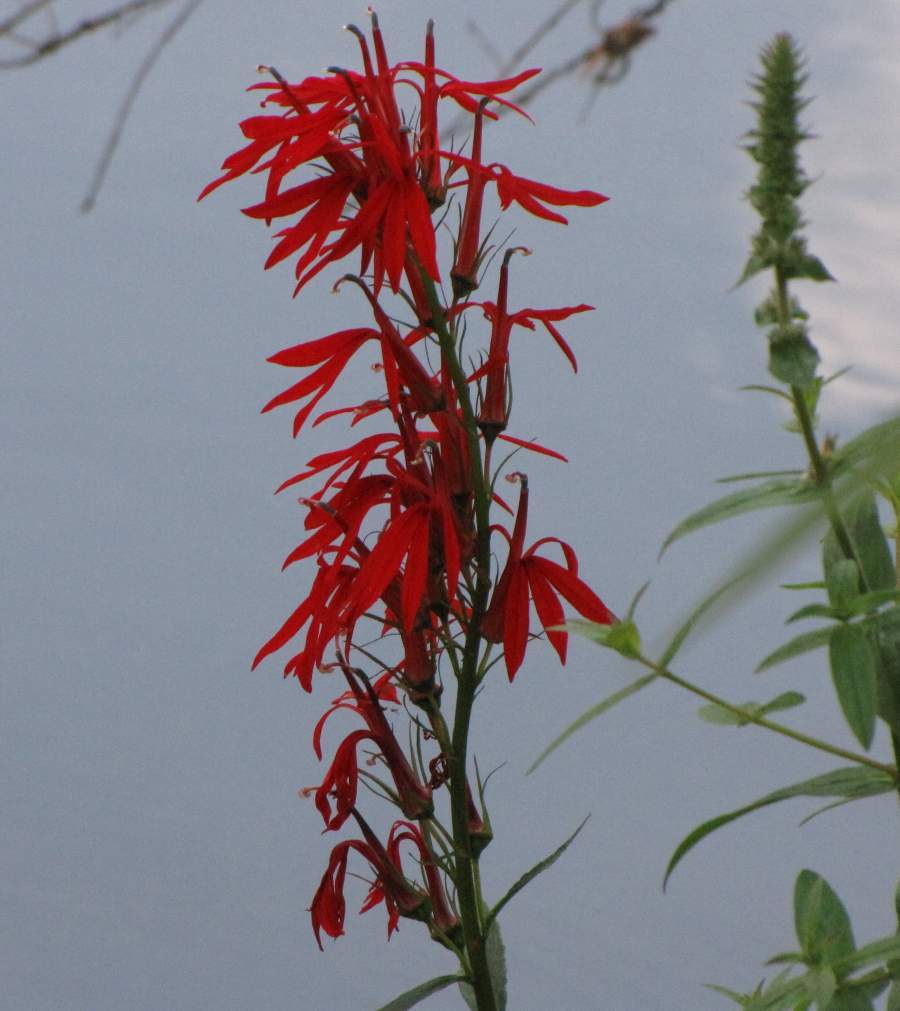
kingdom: Plantae
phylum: Tracheophyta
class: Magnoliopsida
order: Asterales
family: Campanulaceae
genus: Lobelia
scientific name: Lobelia cardinalis
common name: Cardinal flower
